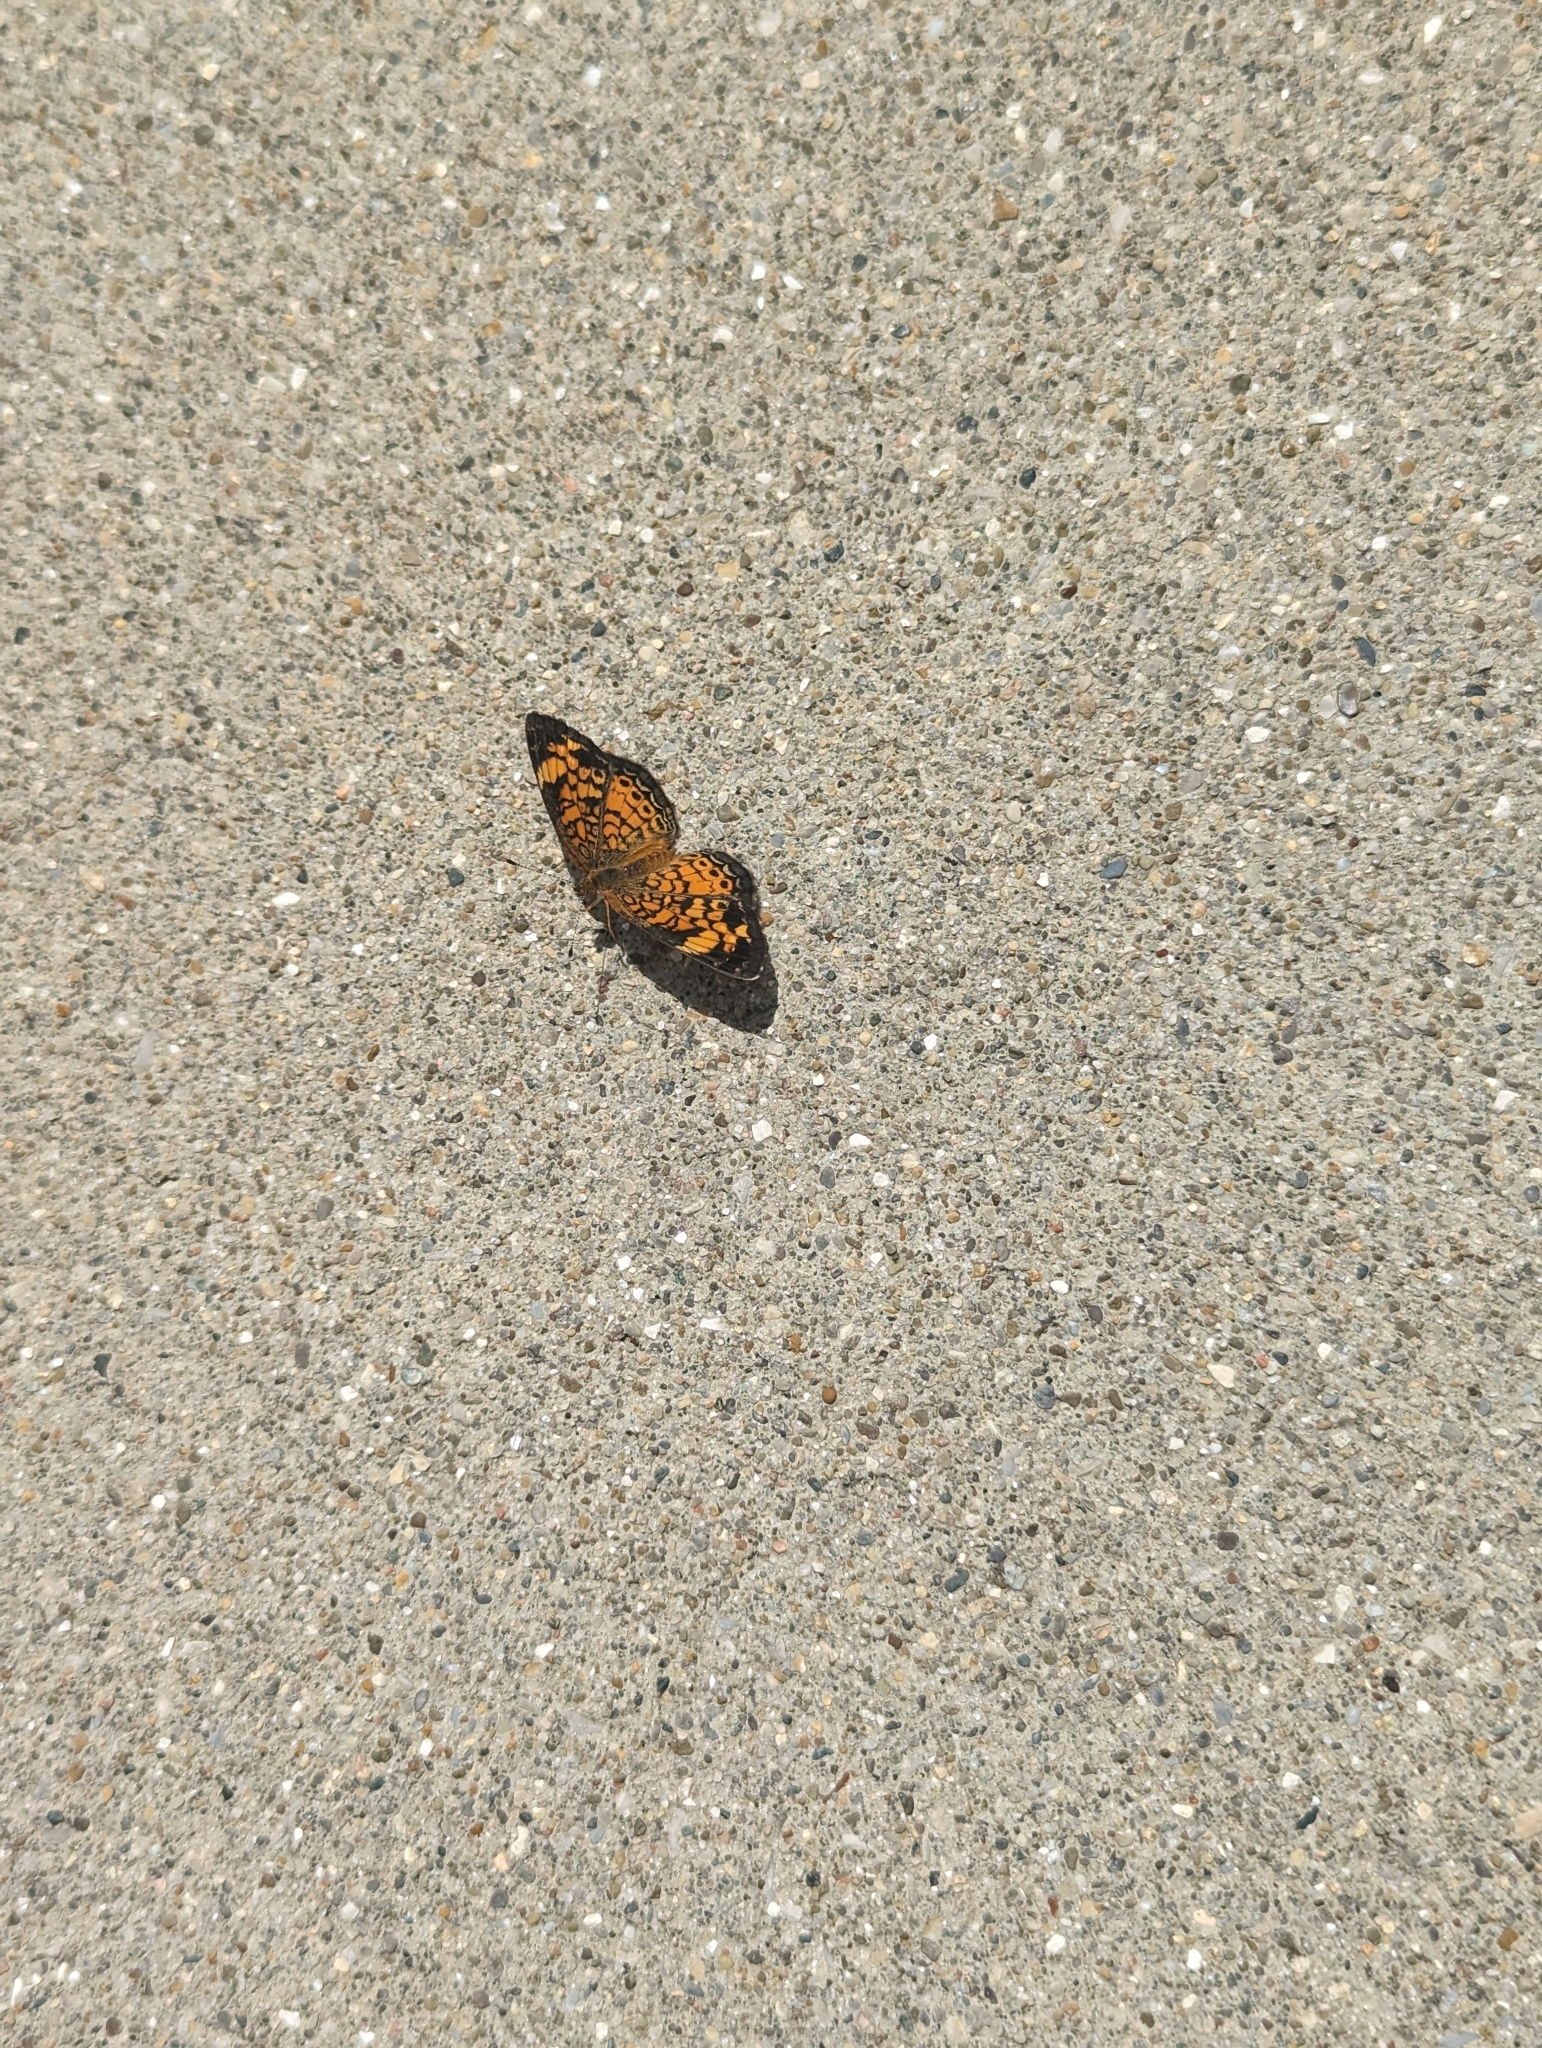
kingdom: Animalia
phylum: Arthropoda
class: Insecta
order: Lepidoptera
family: Nymphalidae
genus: Phyciodes
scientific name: Phyciodes tharos
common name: Pearl crescent
